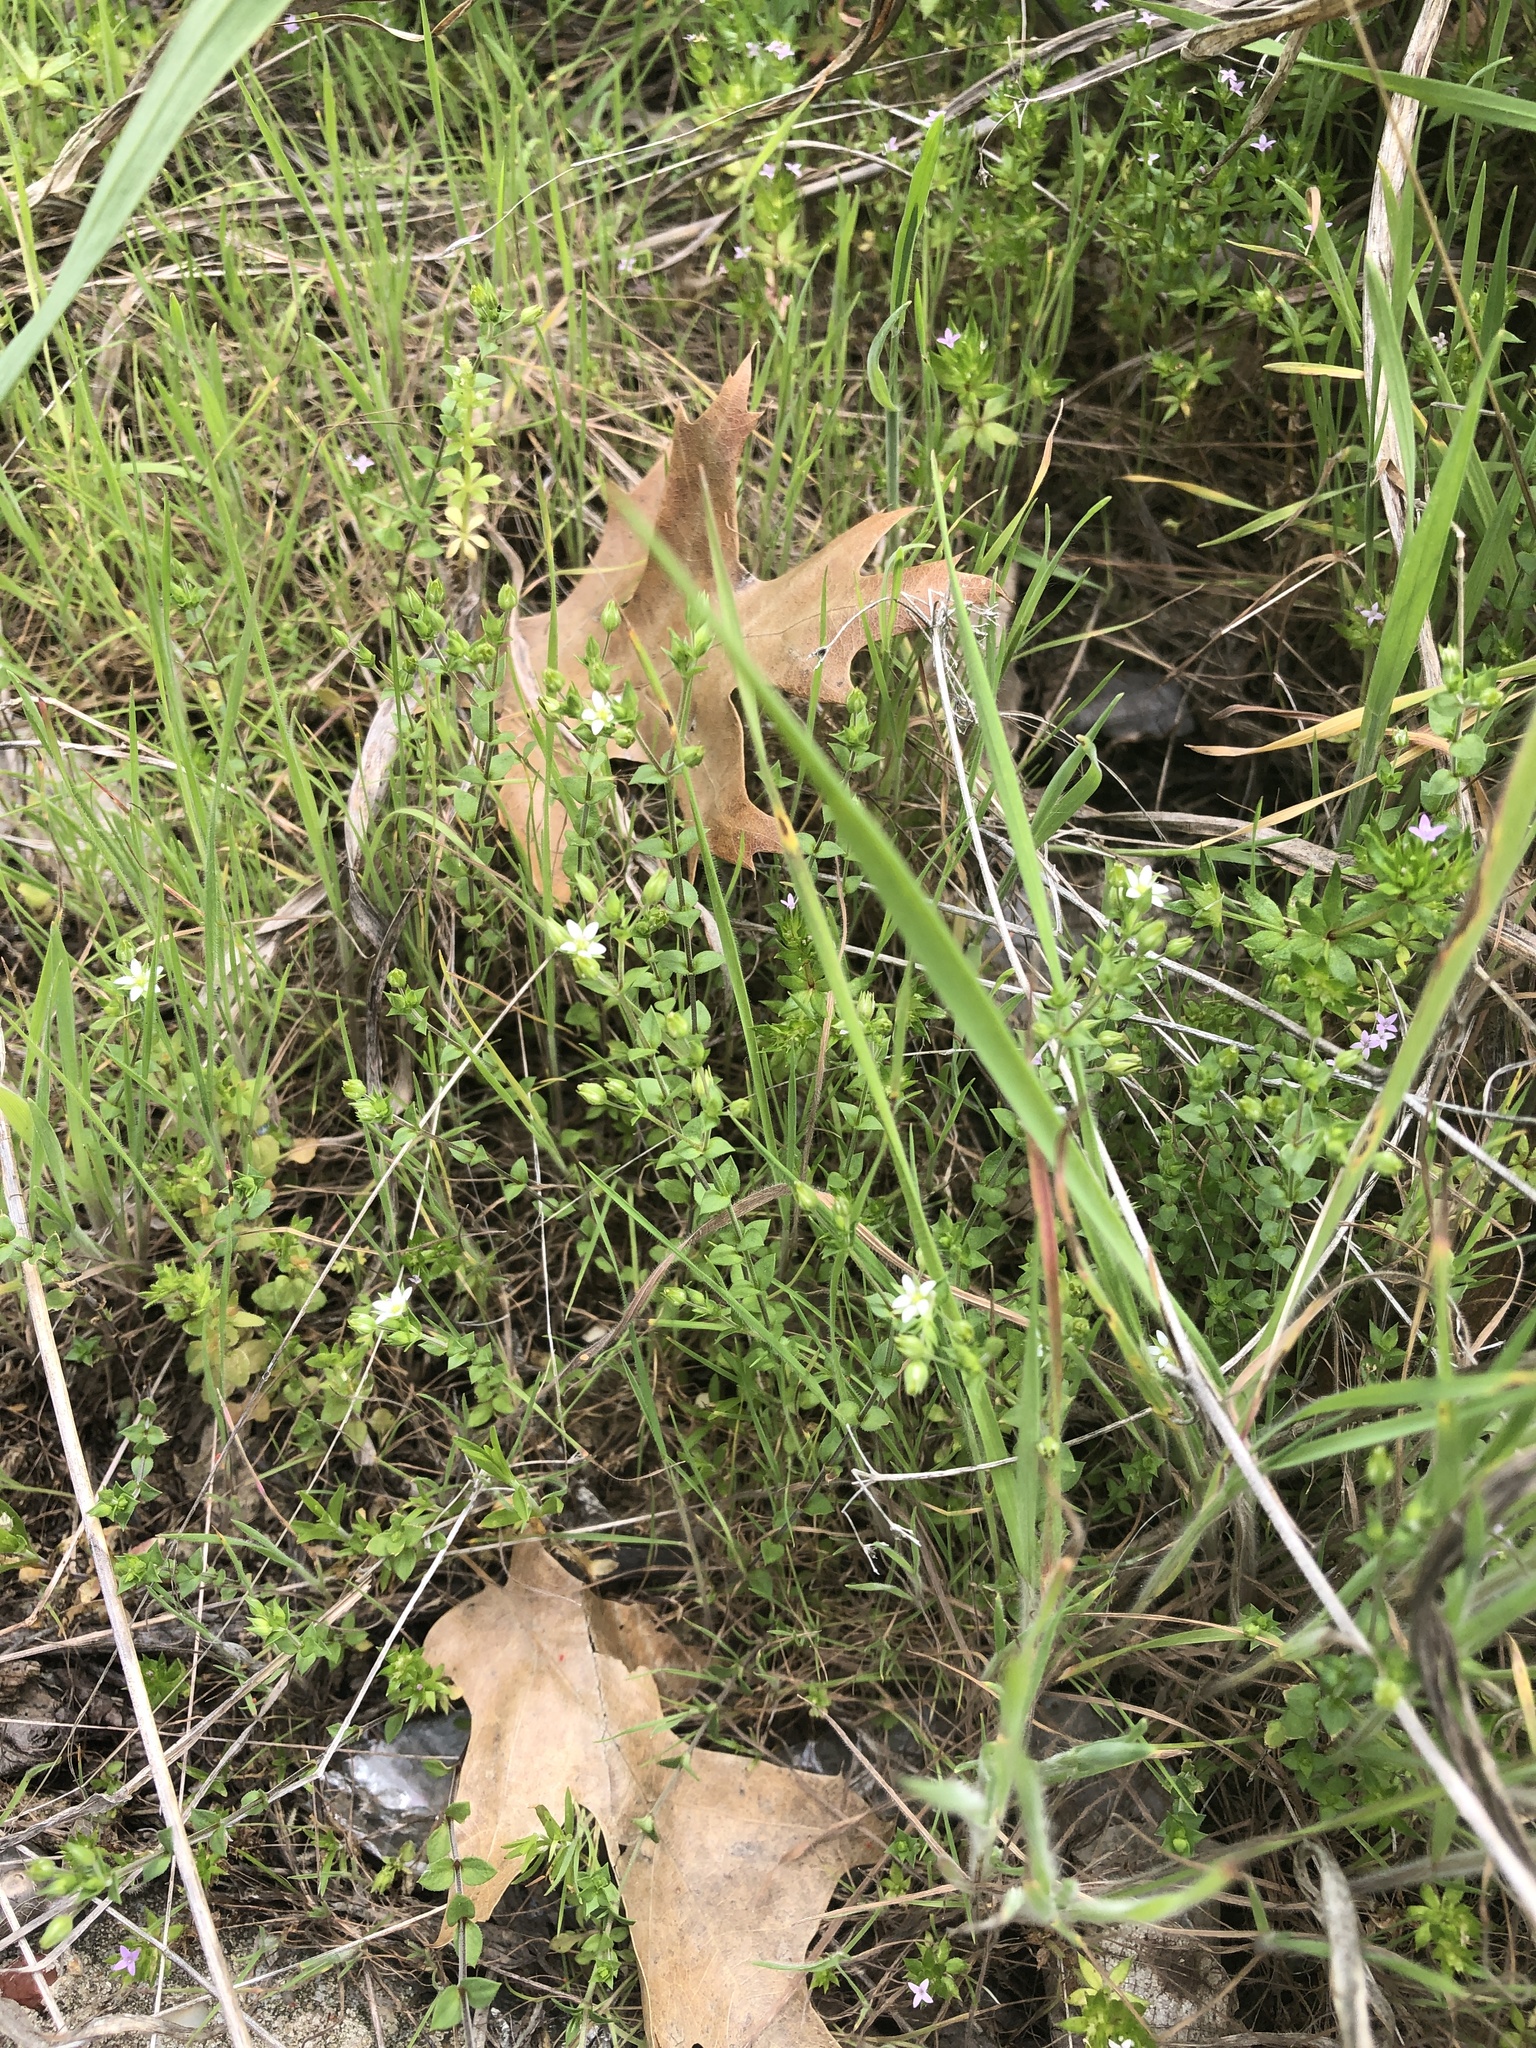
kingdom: Plantae
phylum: Tracheophyta
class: Magnoliopsida
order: Caryophyllales
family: Caryophyllaceae
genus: Arenaria
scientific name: Arenaria serpyllifolia
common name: Thyme-leaved sandwort
